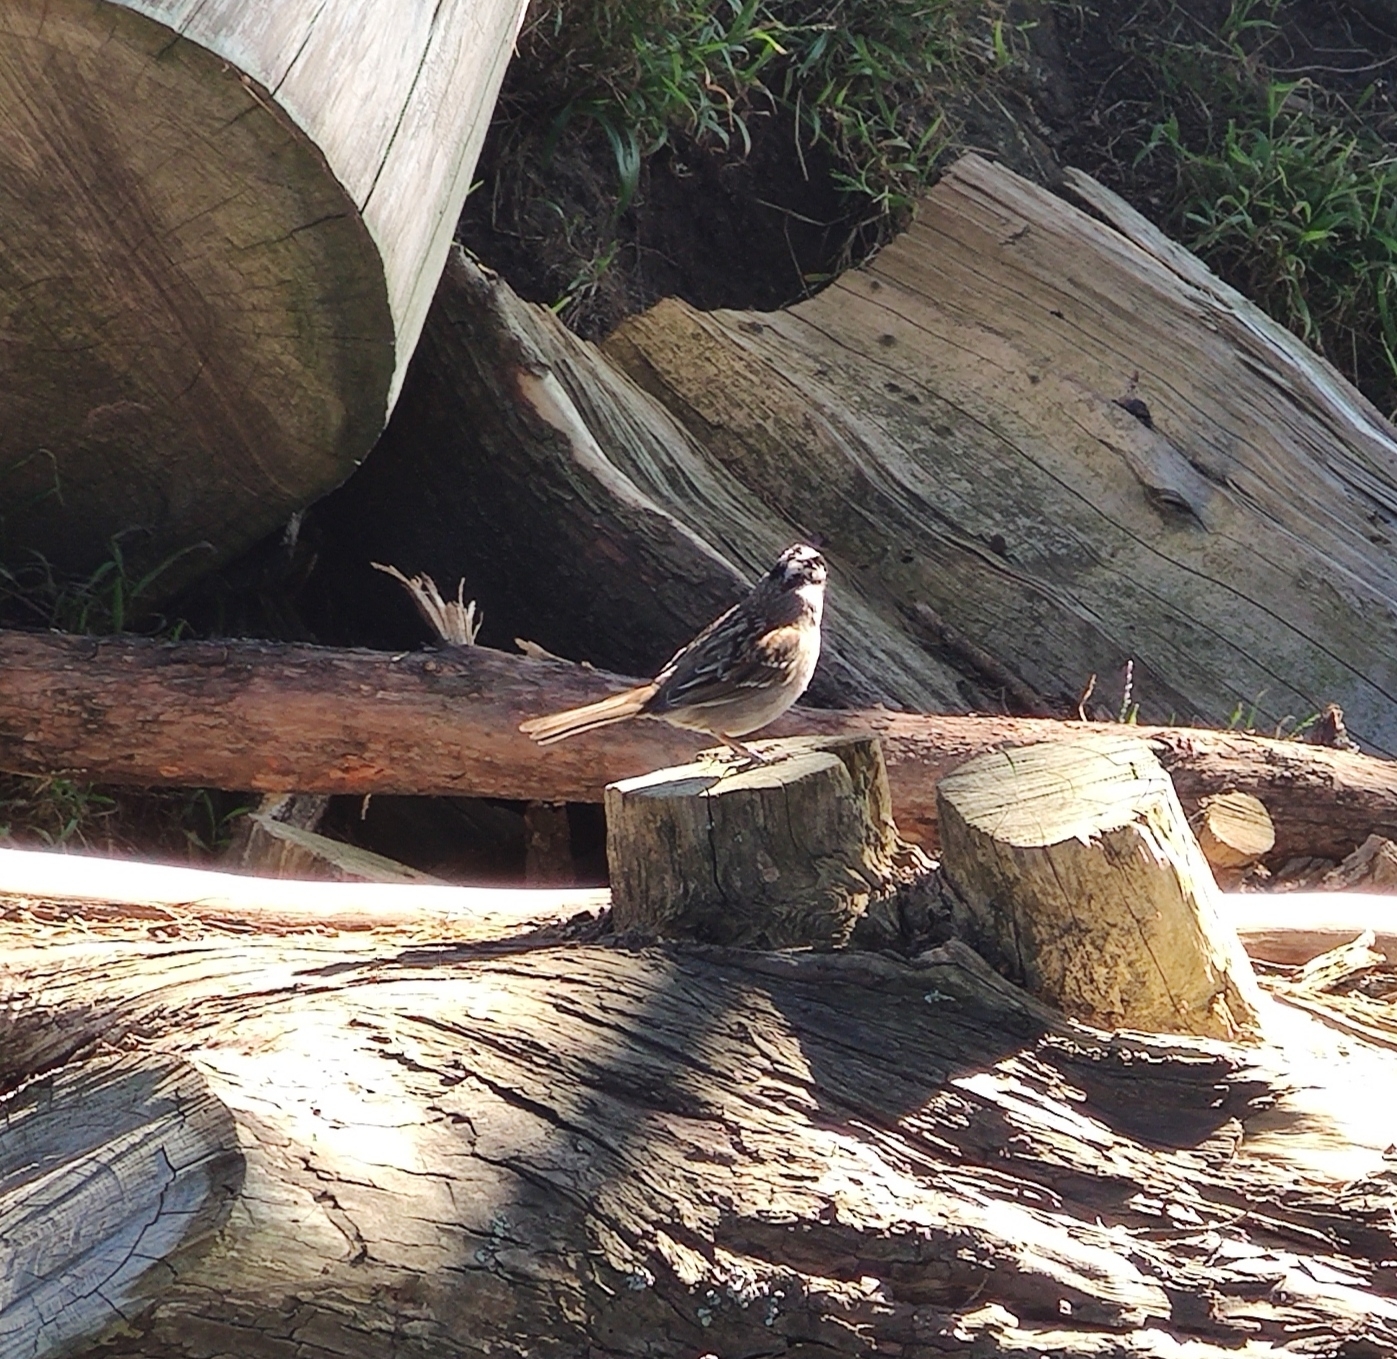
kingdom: Animalia
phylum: Chordata
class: Aves
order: Passeriformes
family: Passerellidae
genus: Zonotrichia
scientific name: Zonotrichia leucophrys
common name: White-crowned sparrow
